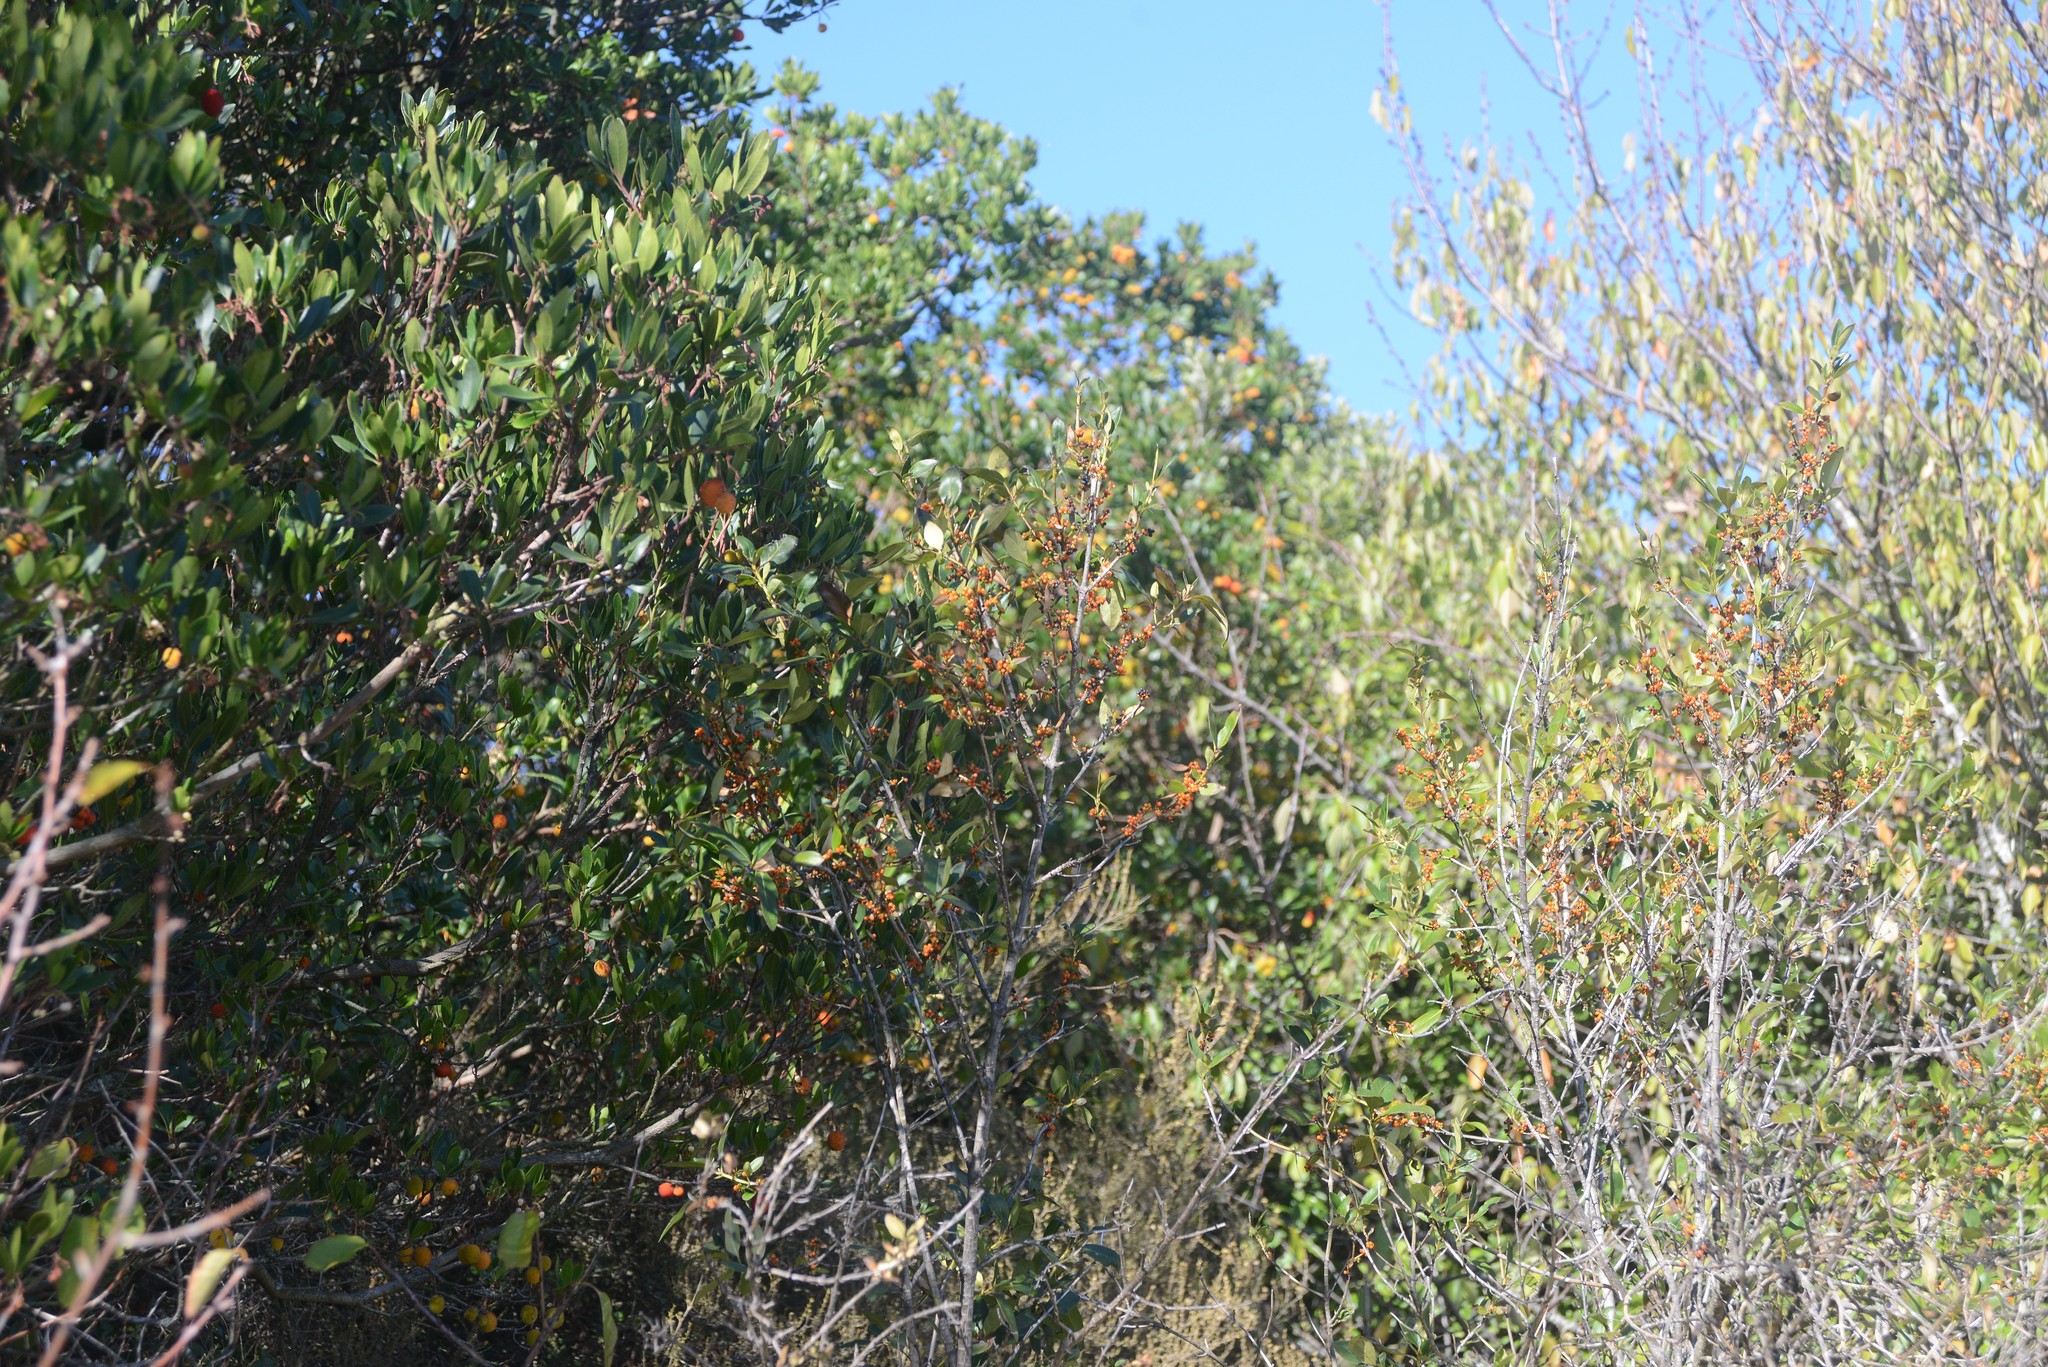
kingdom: Plantae
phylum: Tracheophyta
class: Magnoliopsida
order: Gentianales
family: Rubiaceae
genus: Coprosma
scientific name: Coprosma robusta
